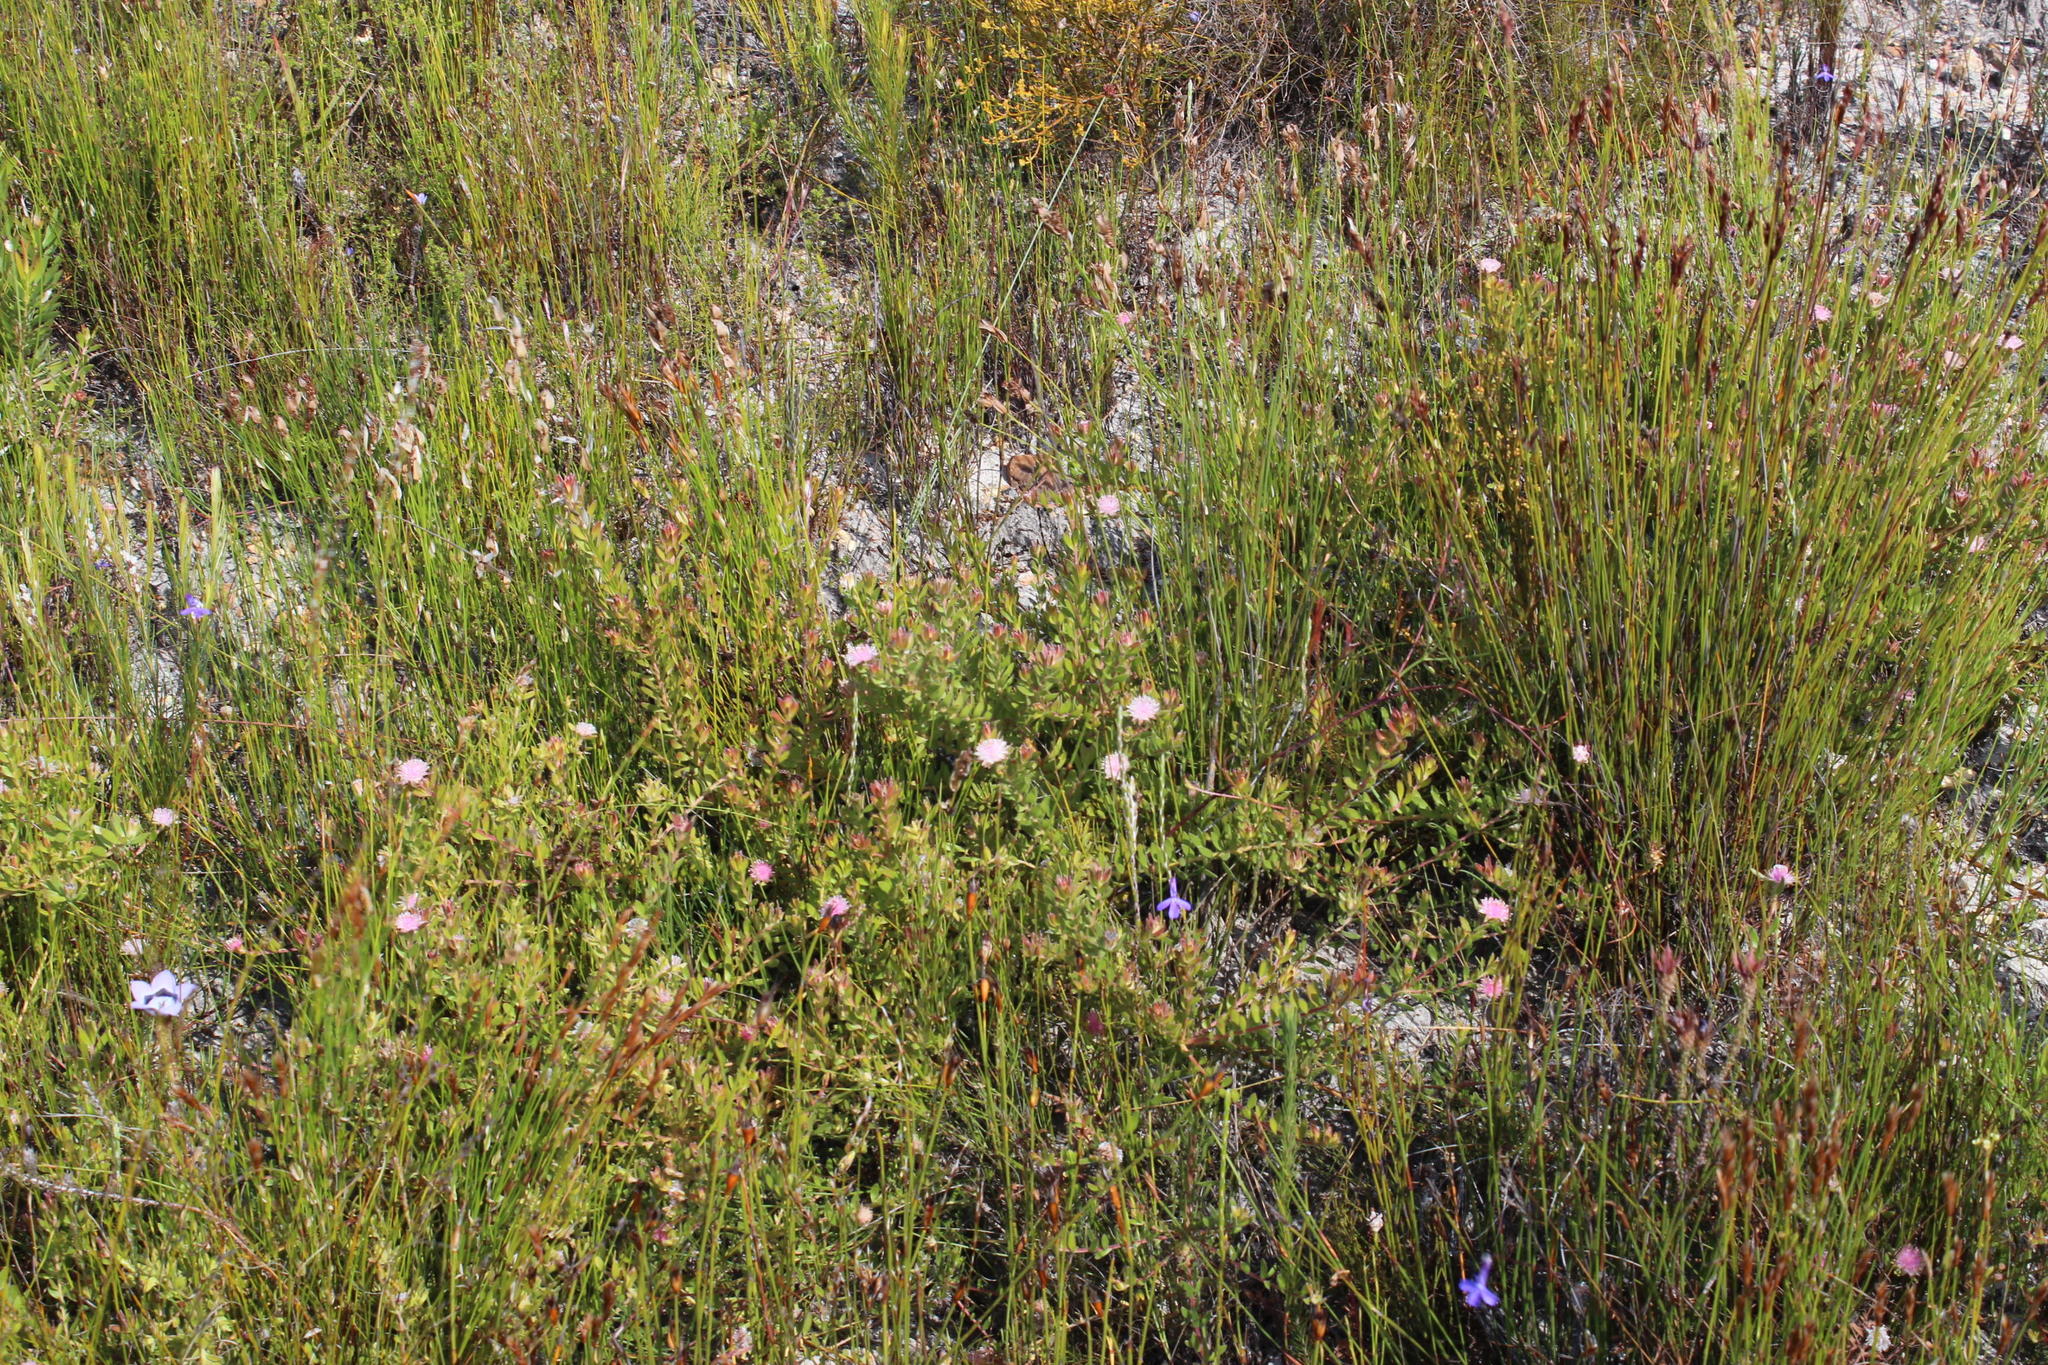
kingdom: Plantae
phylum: Tracheophyta
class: Magnoliopsida
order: Proteales
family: Proteaceae
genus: Diastella
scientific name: Diastella divaricata
